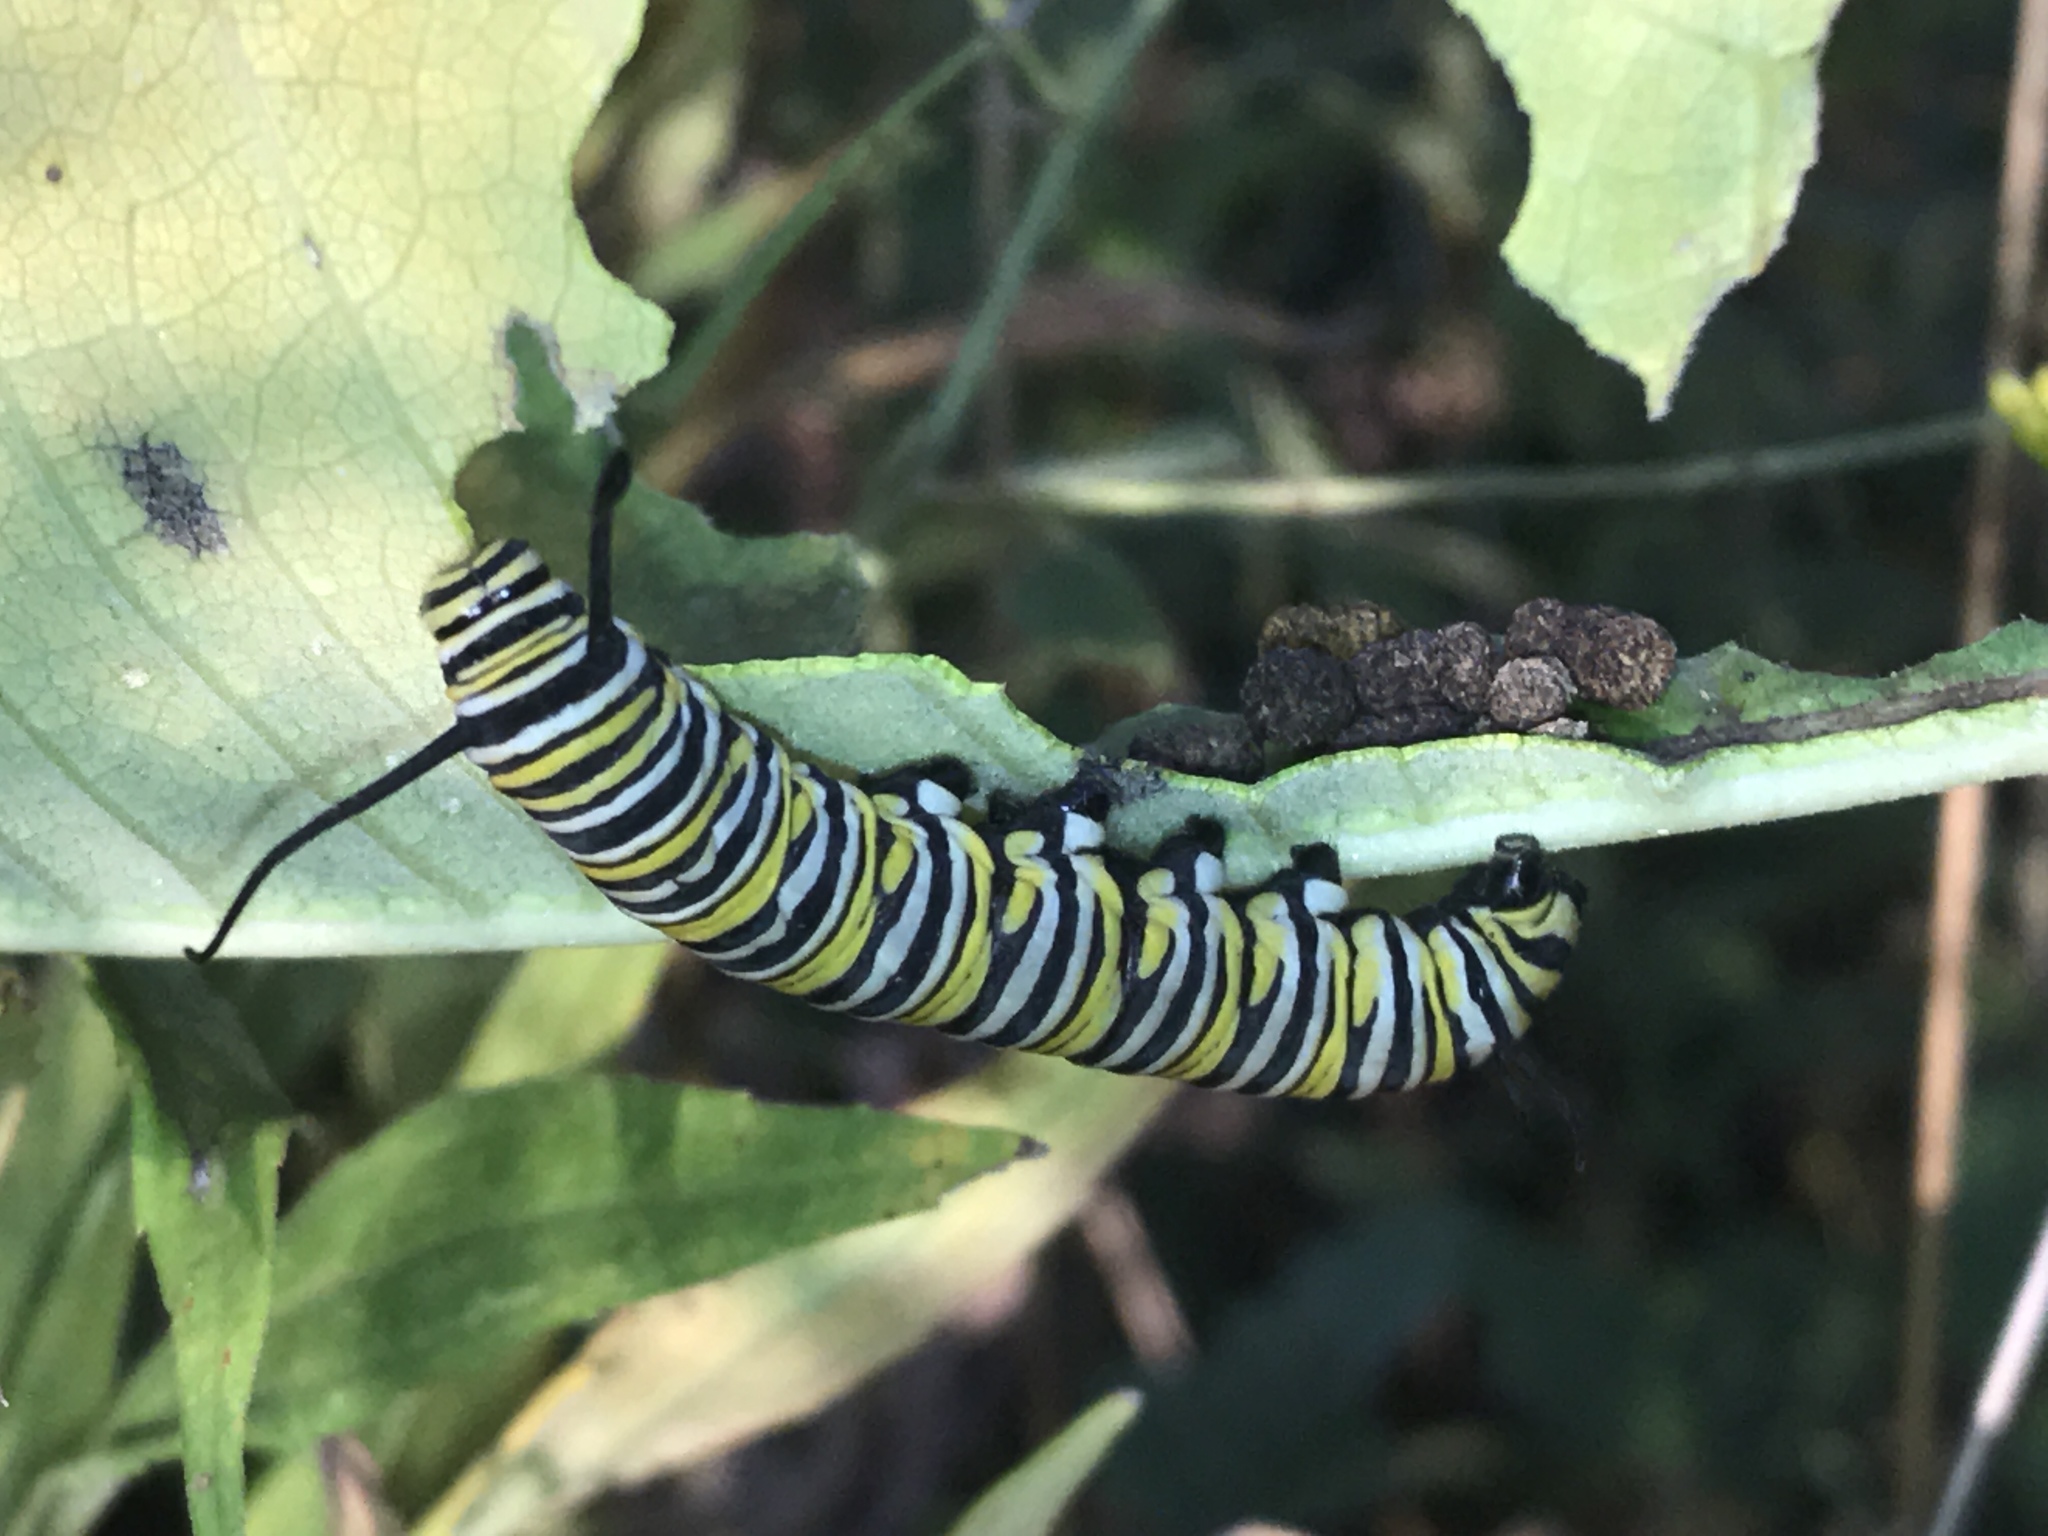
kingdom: Animalia
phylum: Arthropoda
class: Insecta
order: Lepidoptera
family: Nymphalidae
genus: Danaus
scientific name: Danaus plexippus
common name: Monarch
